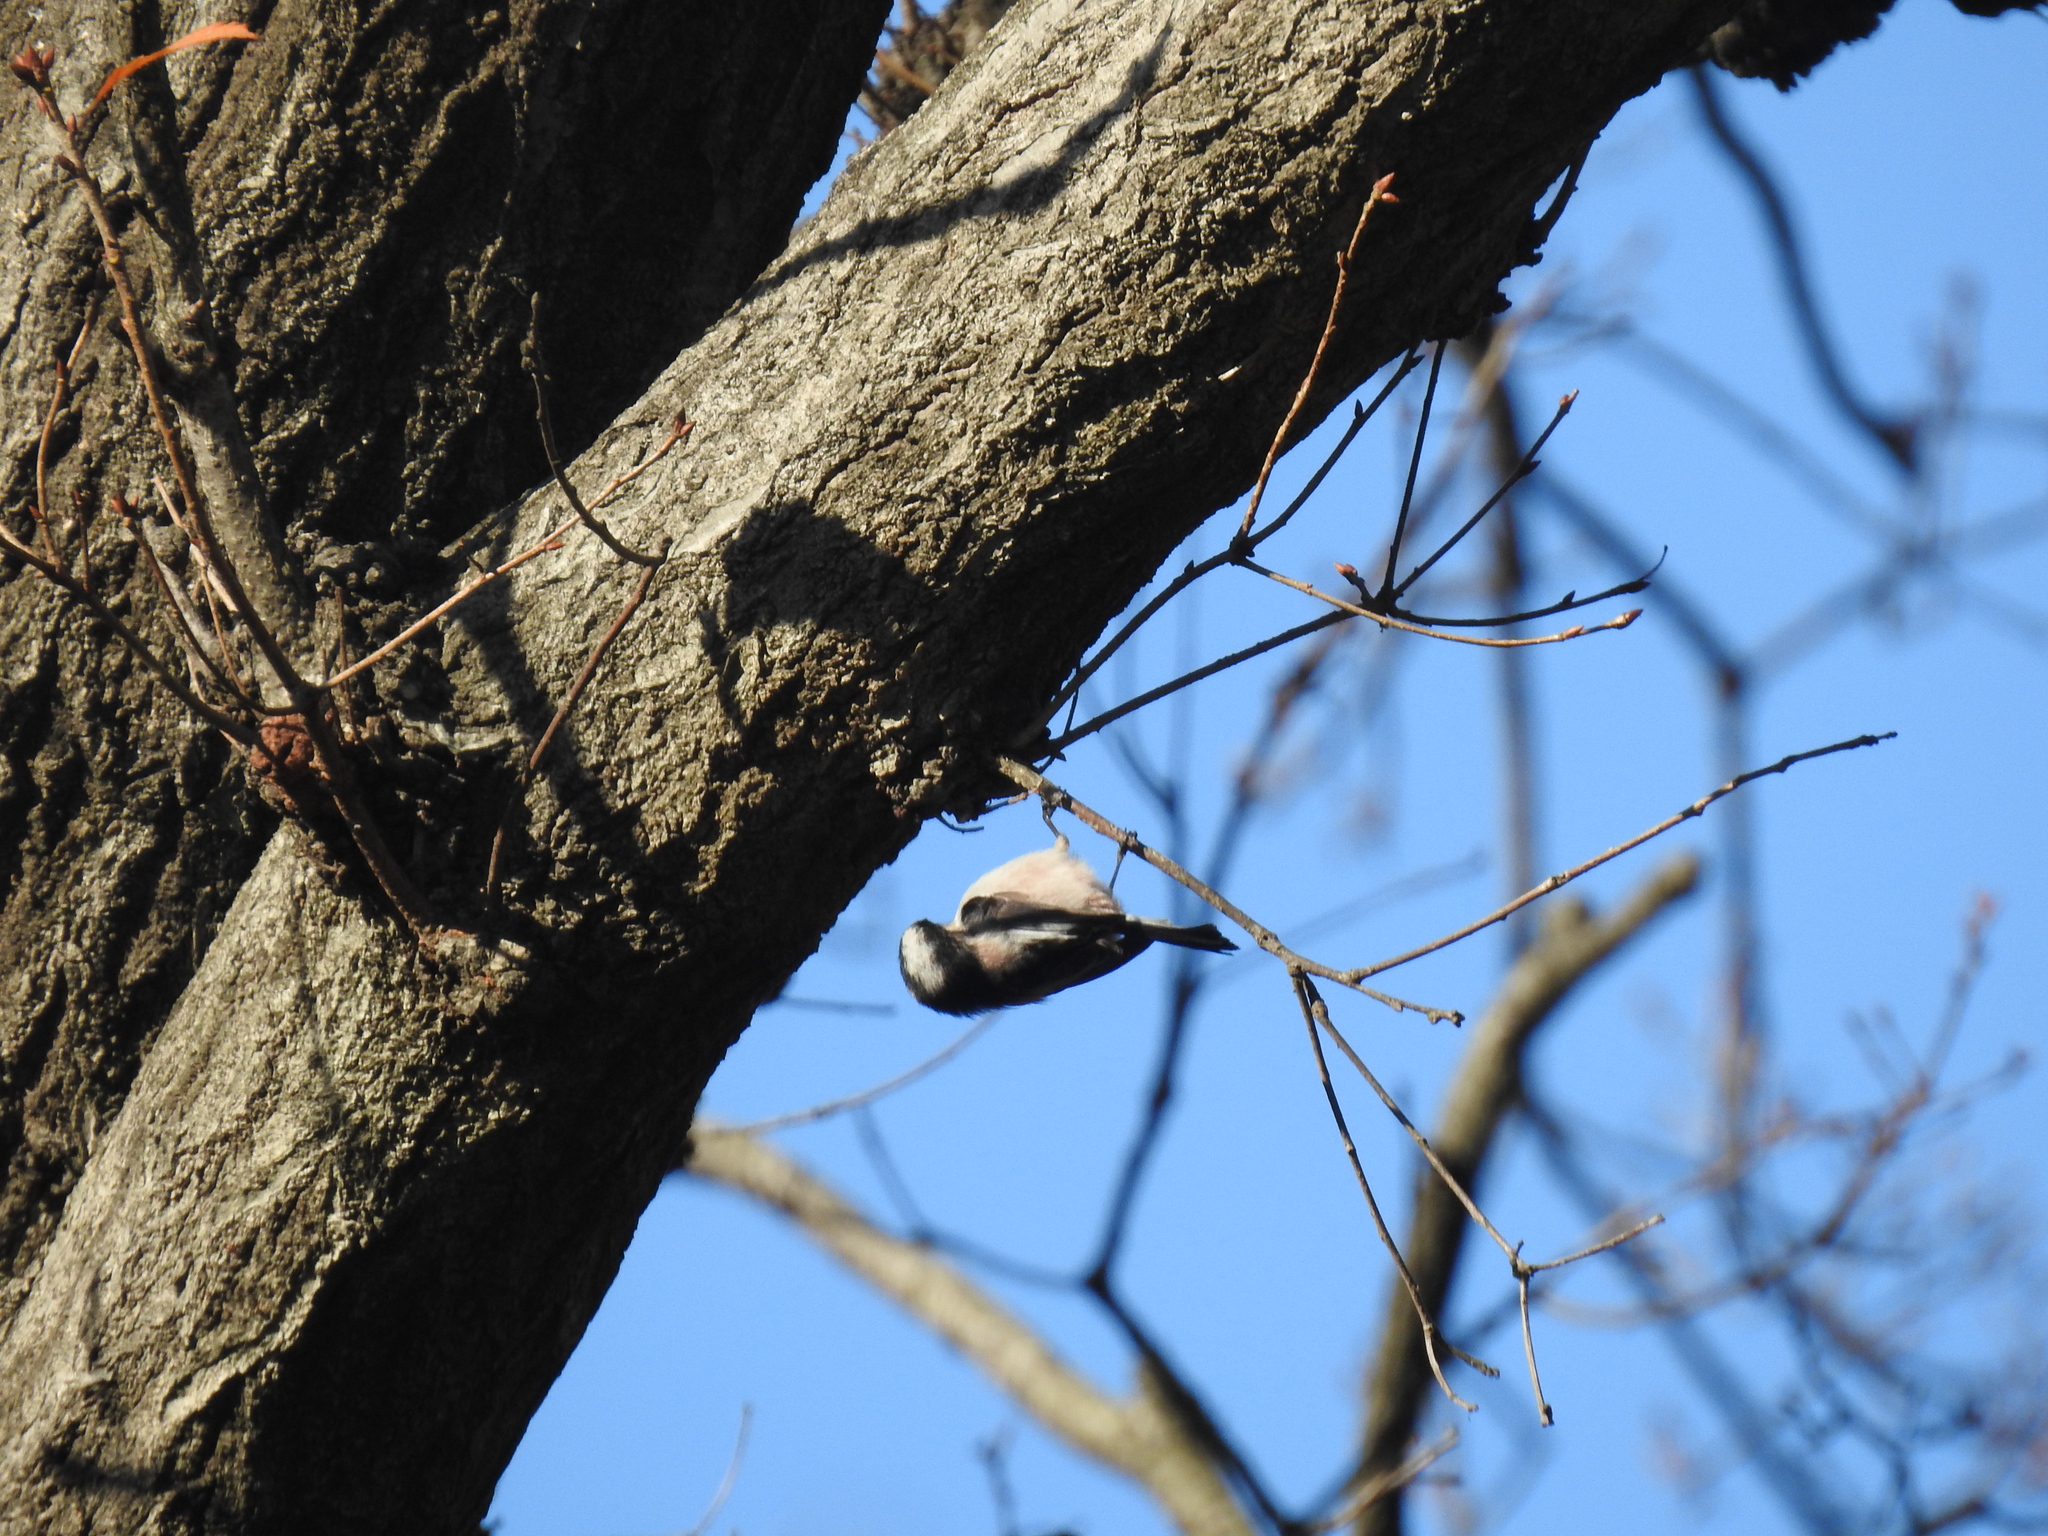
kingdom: Animalia
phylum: Chordata
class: Aves
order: Passeriformes
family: Aegithalidae
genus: Aegithalos
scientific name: Aegithalos caudatus
